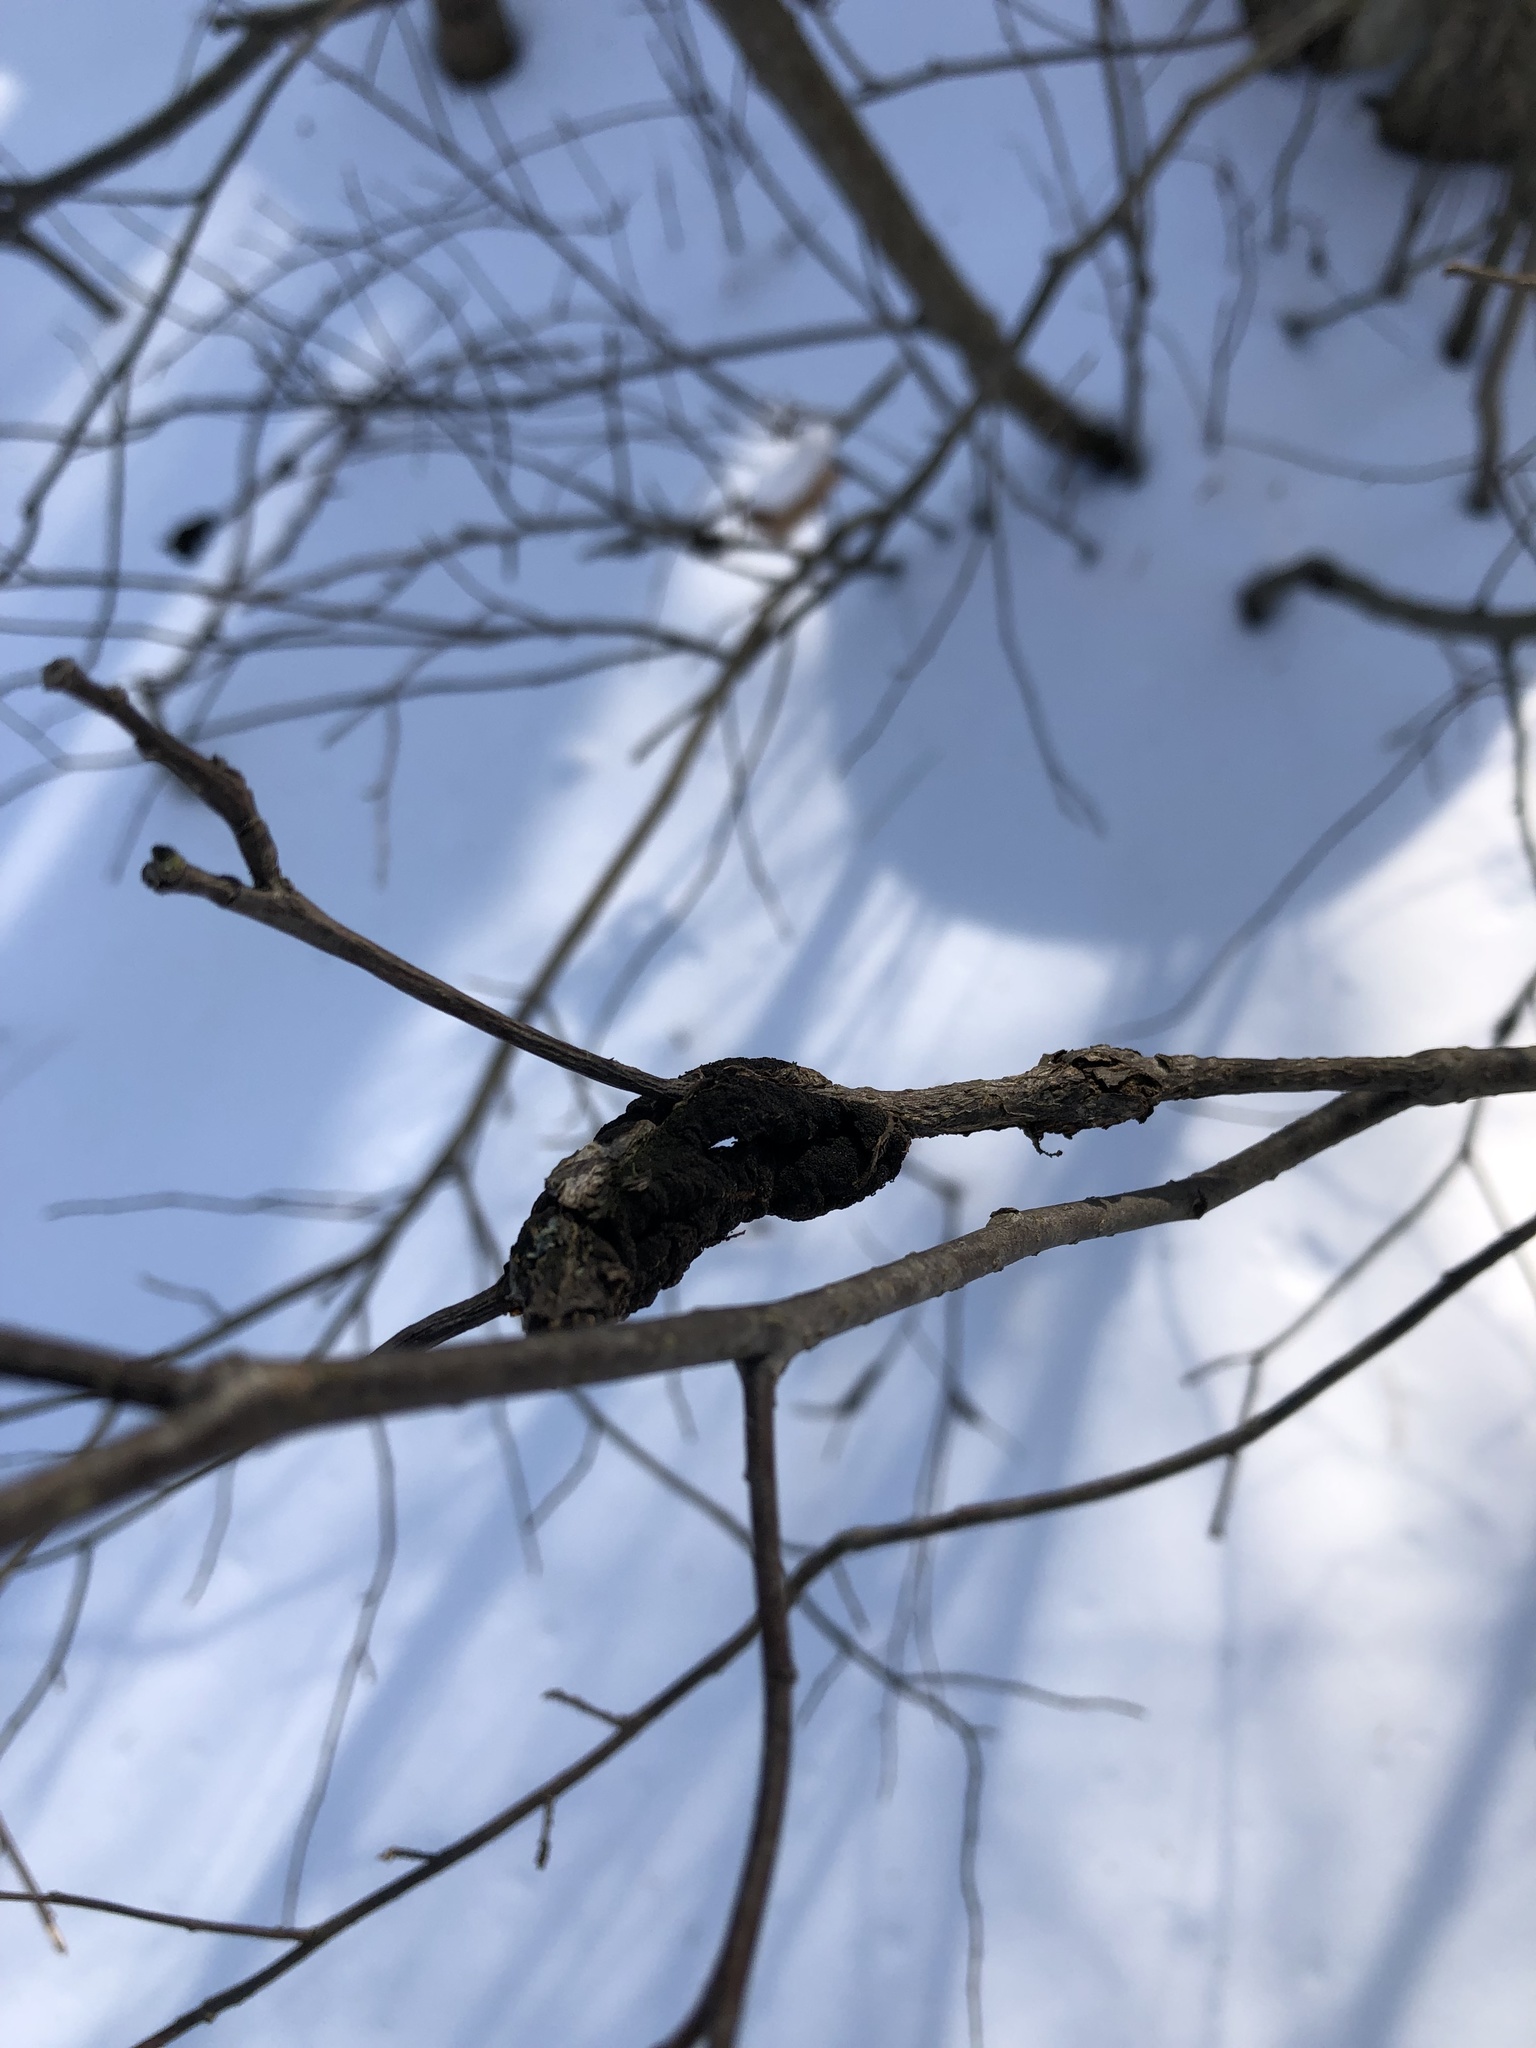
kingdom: Fungi
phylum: Ascomycota
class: Dothideomycetes
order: Venturiales
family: Venturiaceae
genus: Apiosporina
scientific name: Apiosporina morbosa
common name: Black knot
